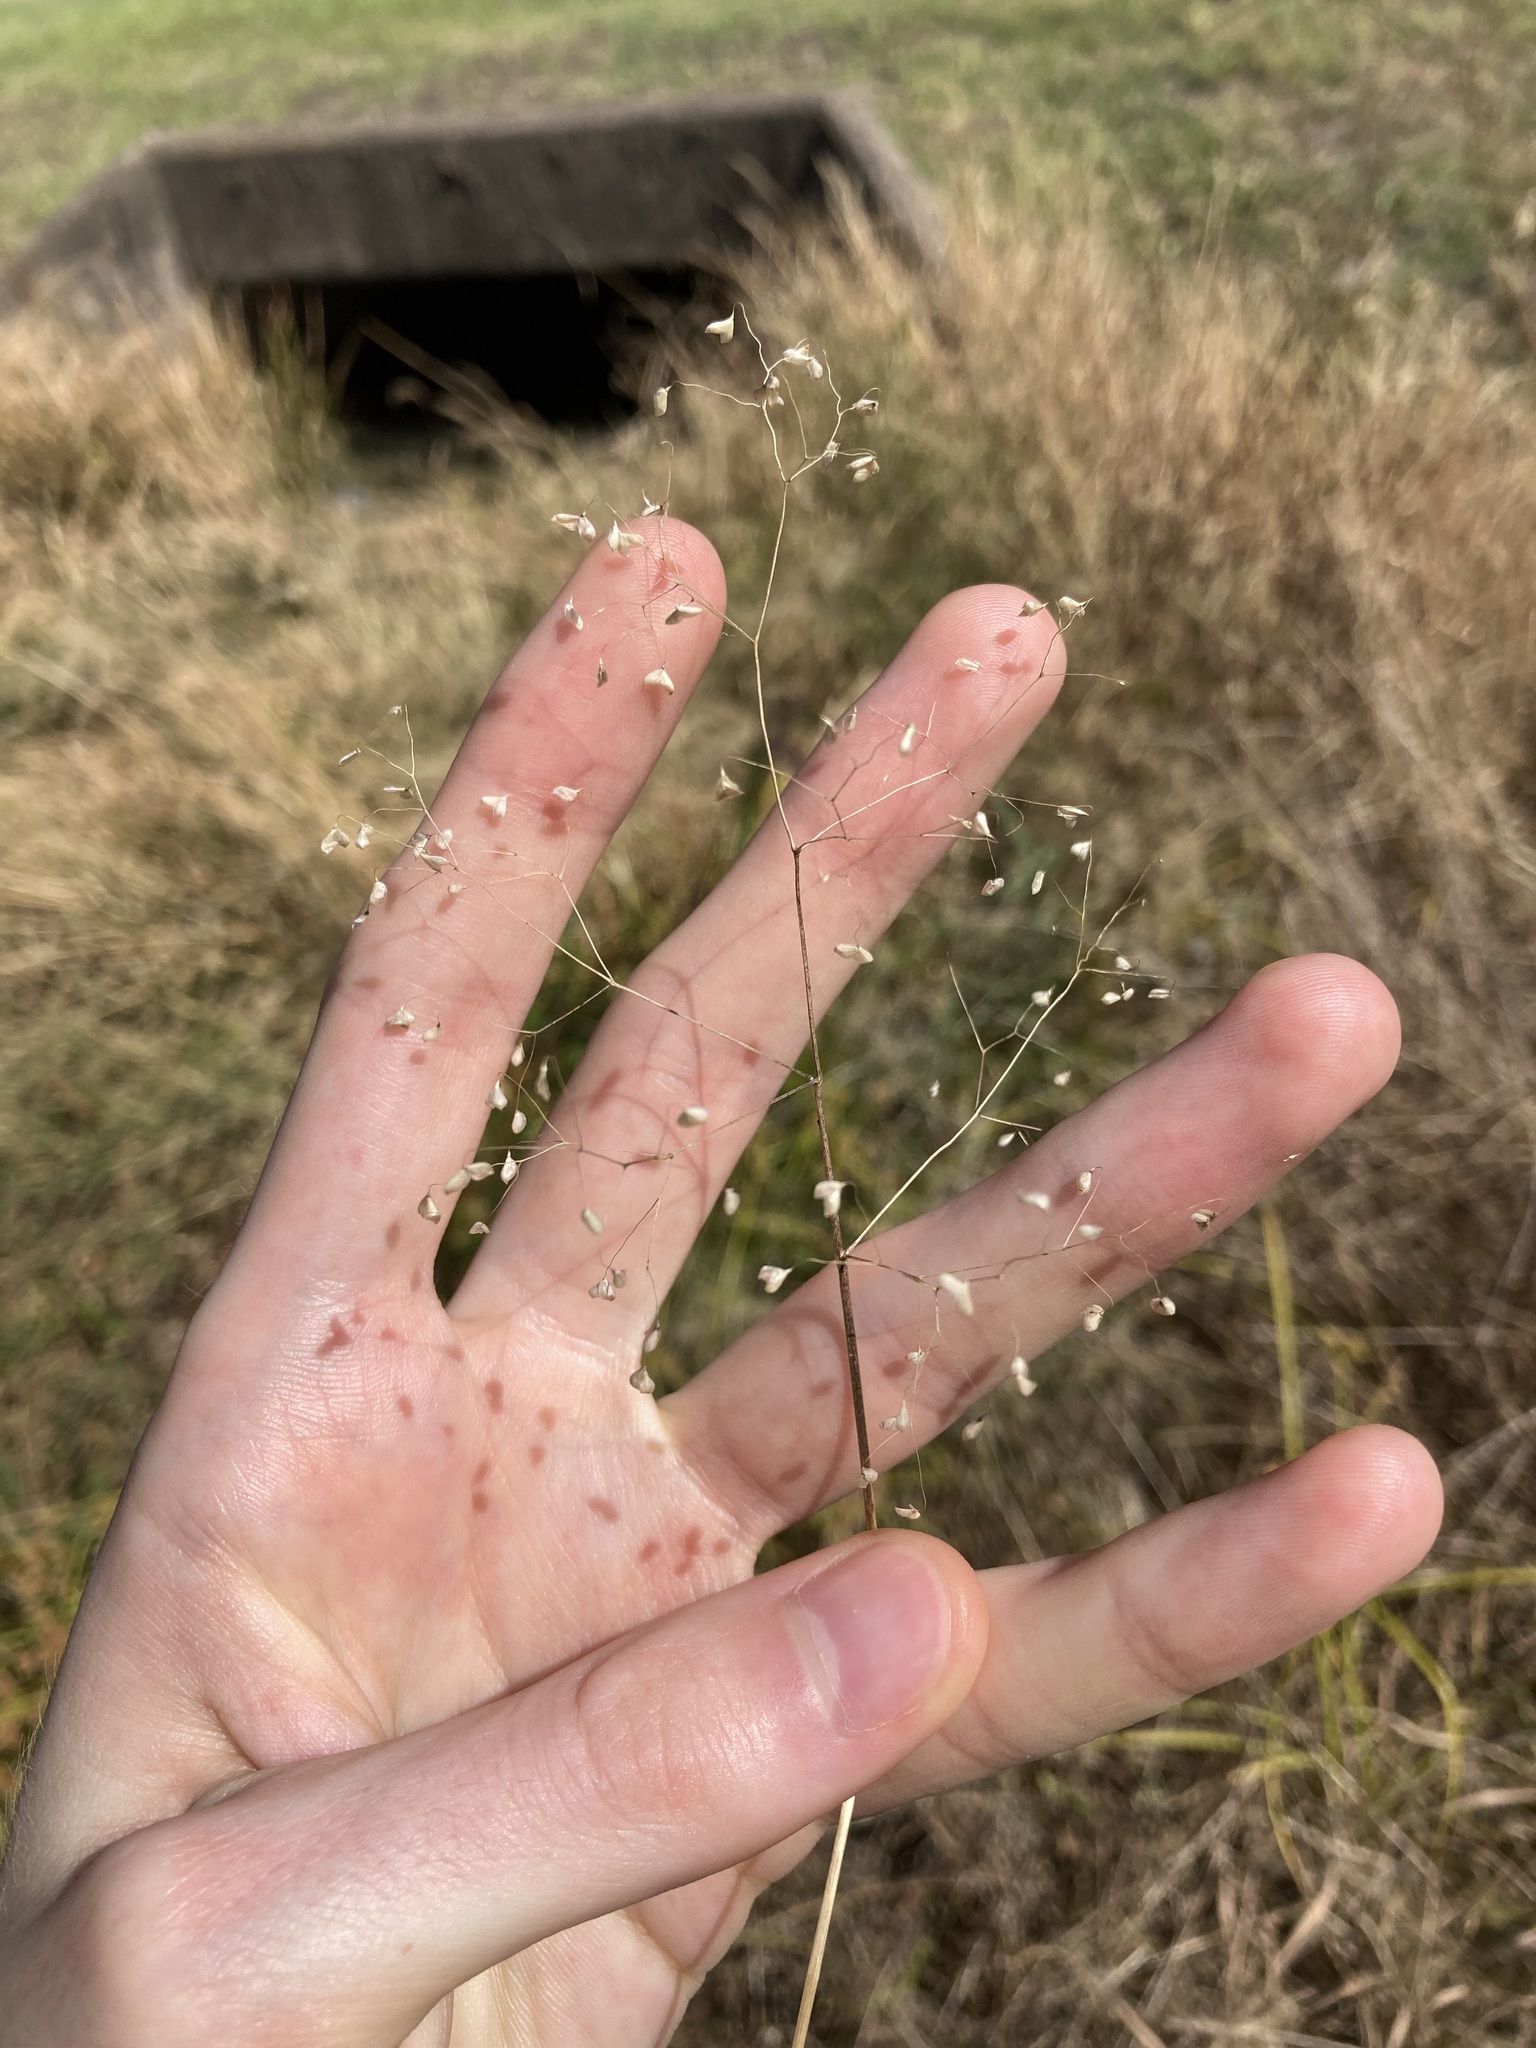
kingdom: Plantae
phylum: Tracheophyta
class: Liliopsida
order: Poales
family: Poaceae
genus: Briza
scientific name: Briza minor
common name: Lesser quaking-grass
